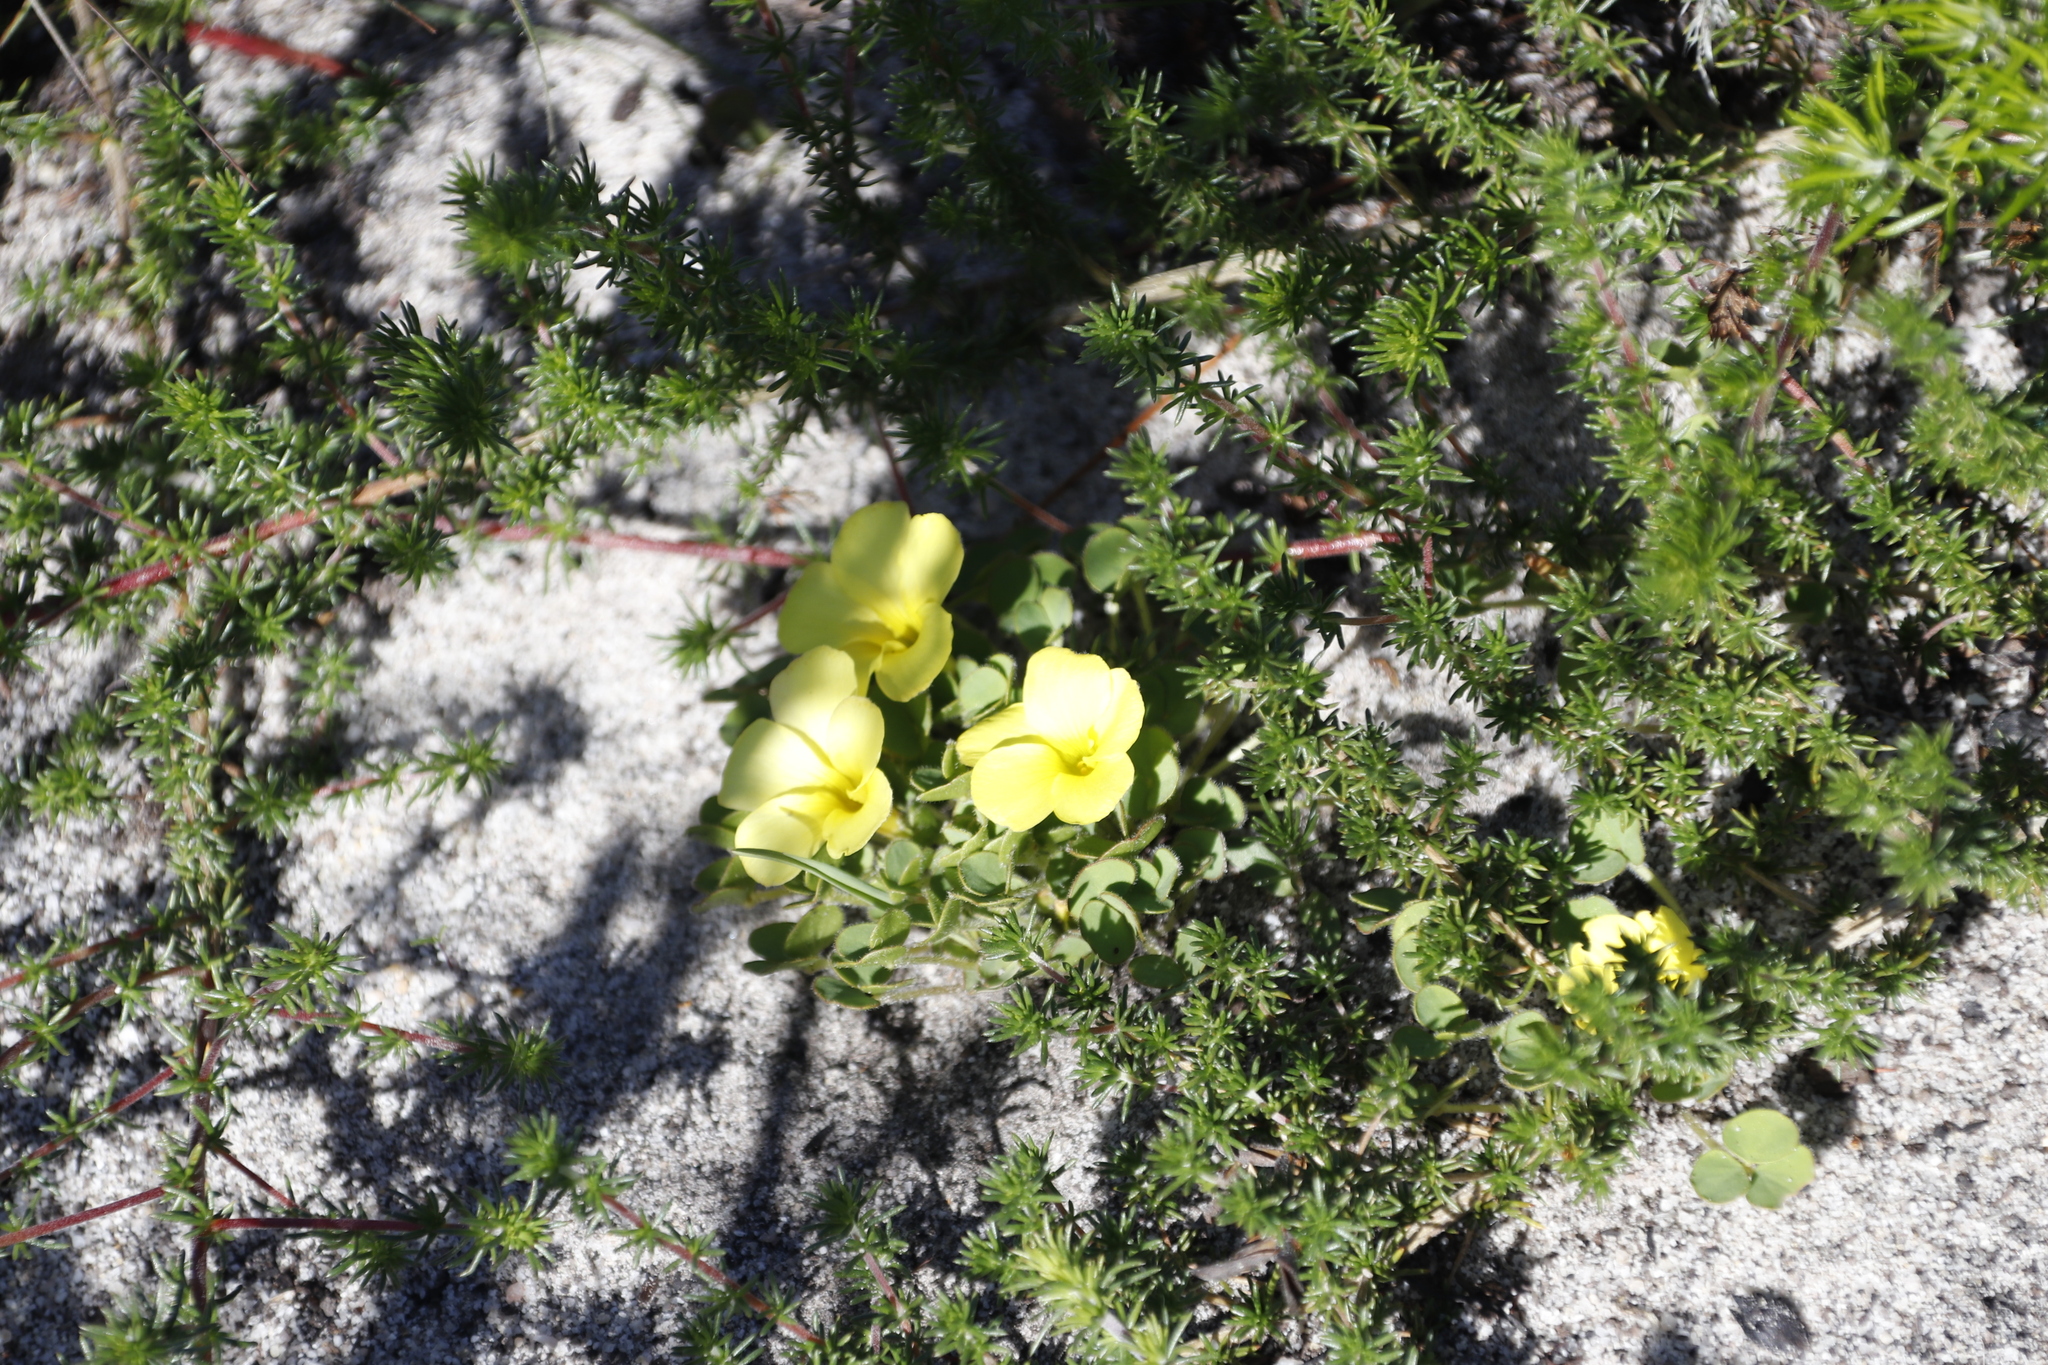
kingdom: Plantae
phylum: Tracheophyta
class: Magnoliopsida
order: Oxalidales
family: Oxalidaceae
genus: Oxalis
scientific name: Oxalis luteola
